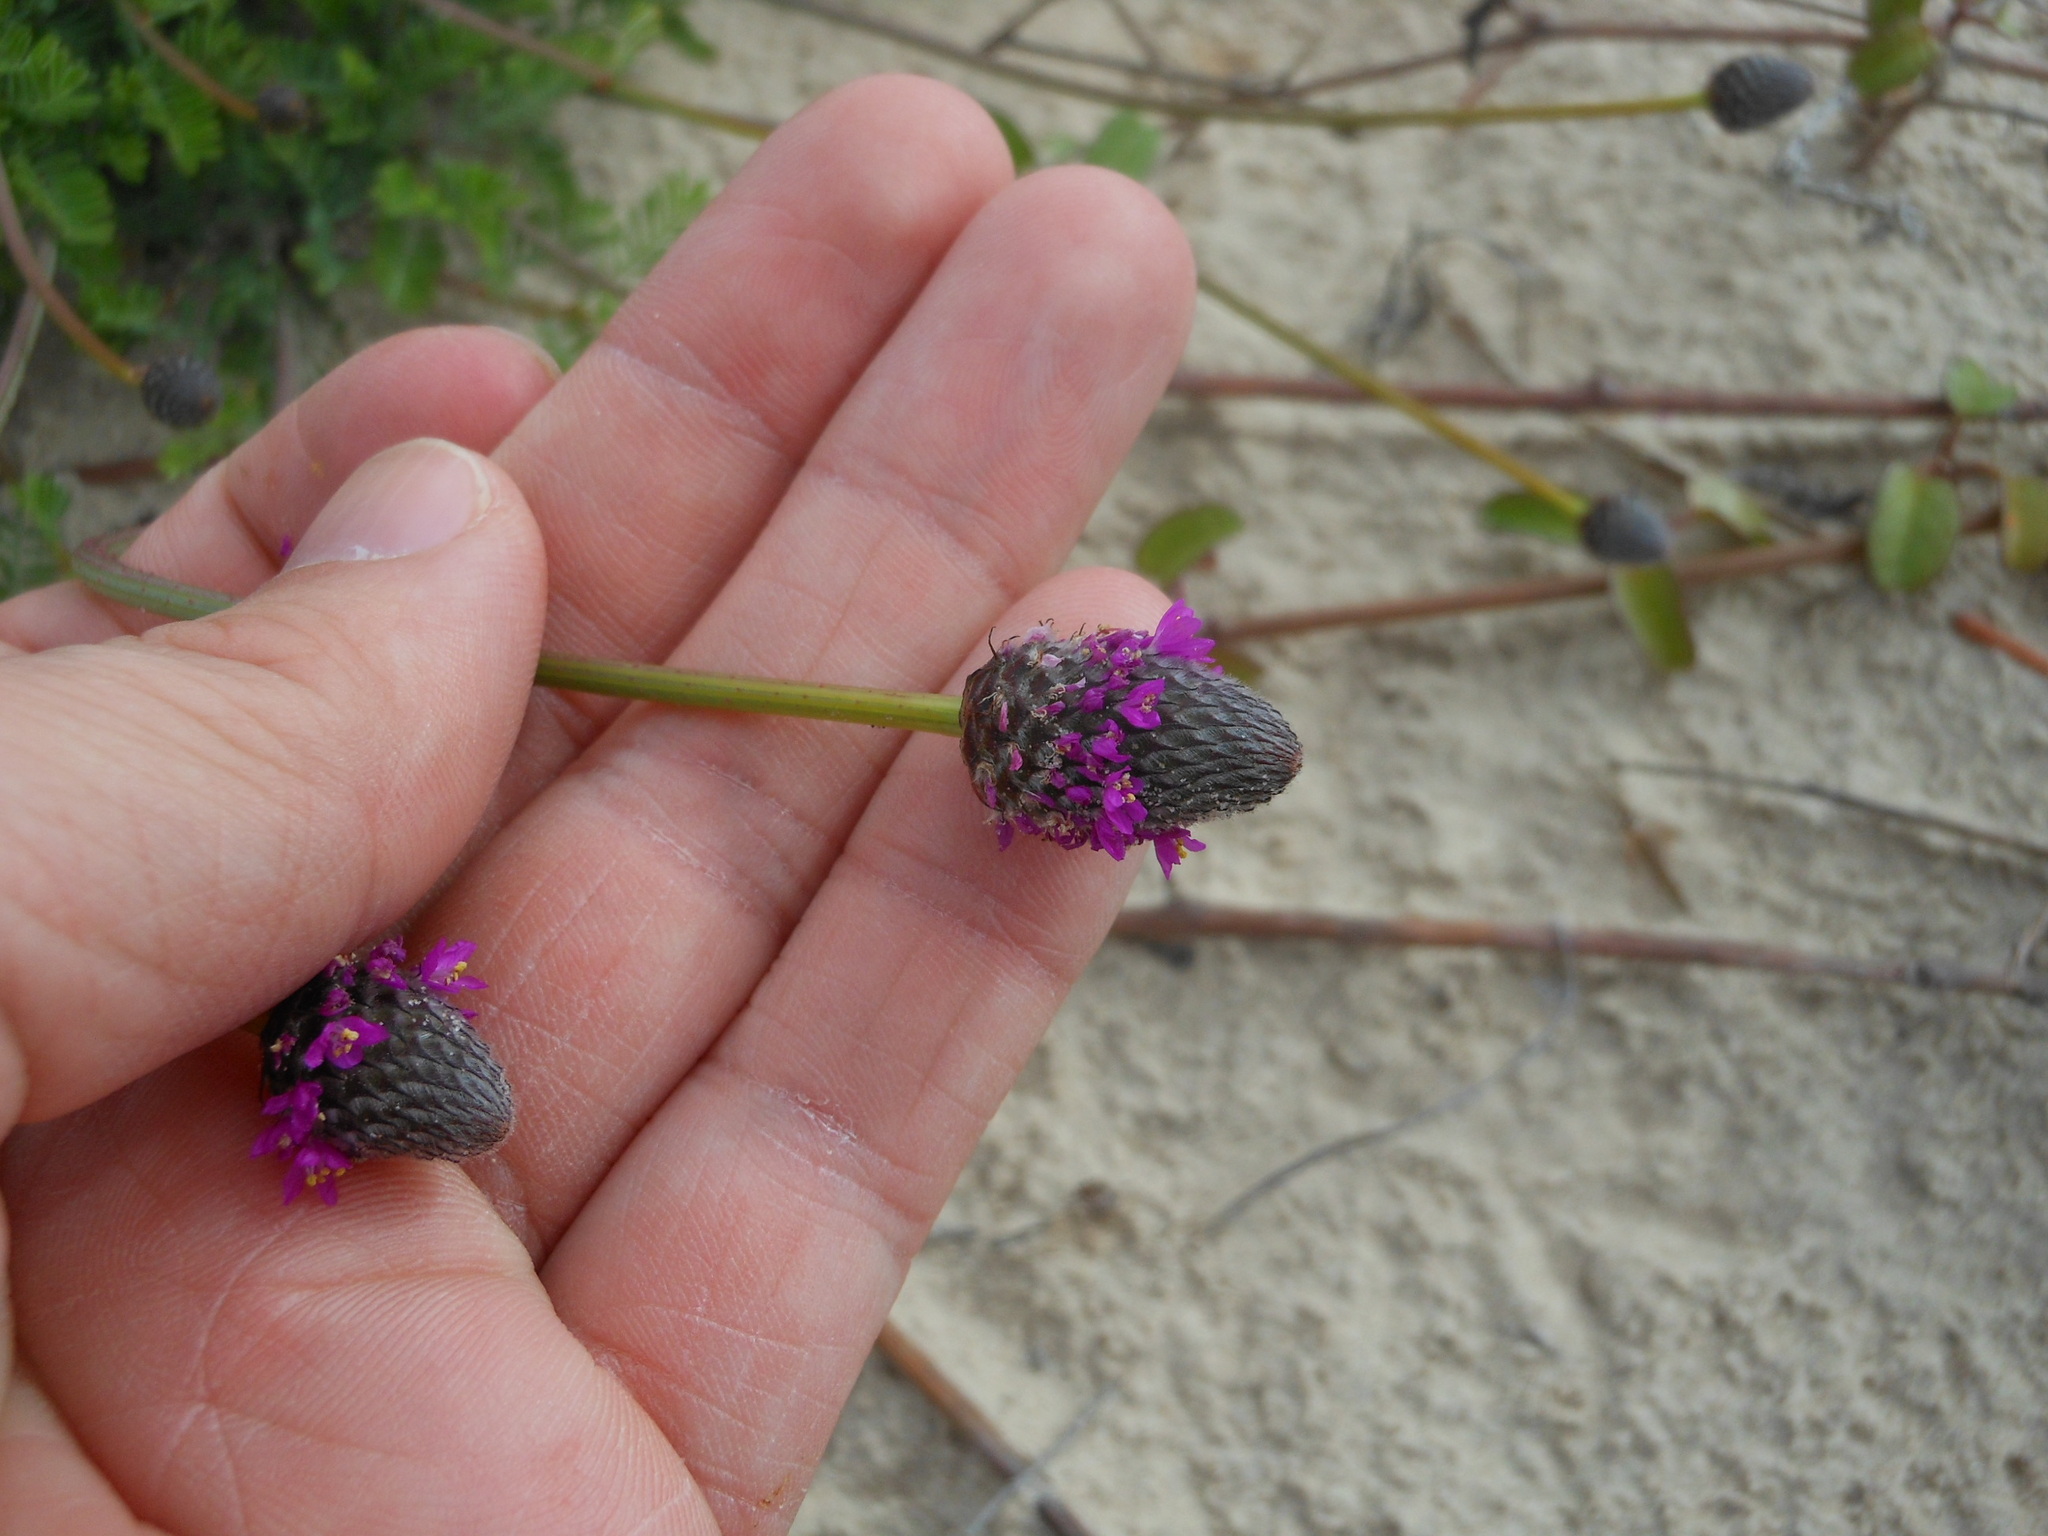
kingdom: Plantae
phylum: Tracheophyta
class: Magnoliopsida
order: Fabales
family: Fabaceae
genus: Dalea
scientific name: Dalea emarginata
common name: Wedgeleaf prairie clover
